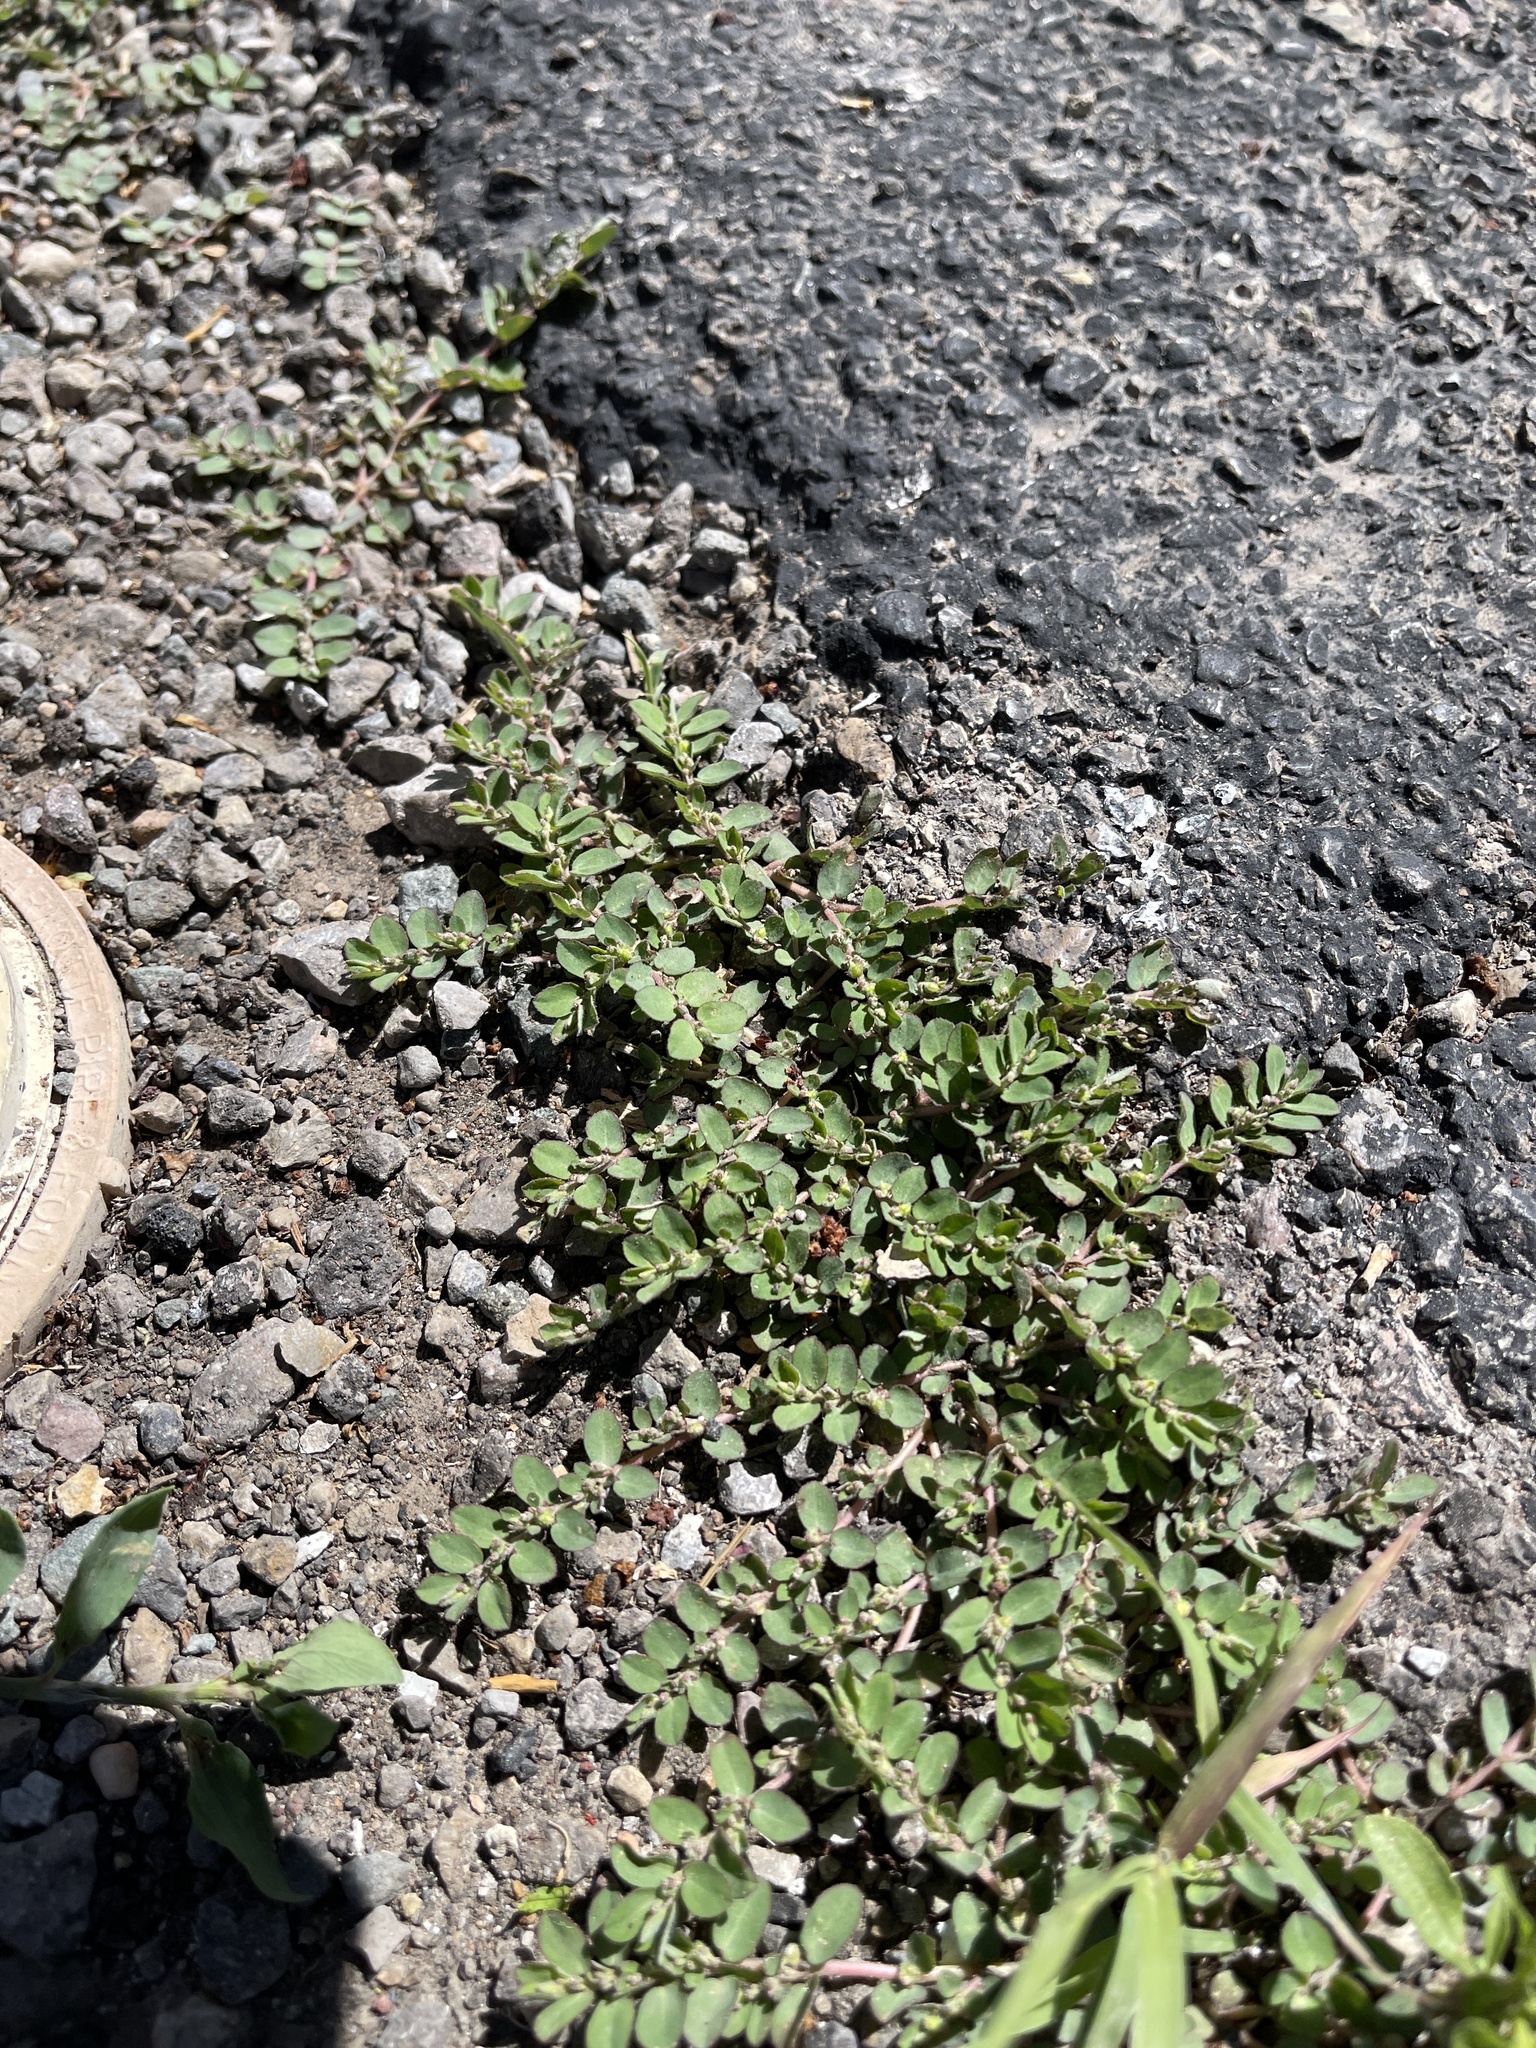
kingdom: Plantae
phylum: Tracheophyta
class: Magnoliopsida
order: Malpighiales
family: Euphorbiaceae
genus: Euphorbia
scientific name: Euphorbia prostrata
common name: Prostrate sandmat
